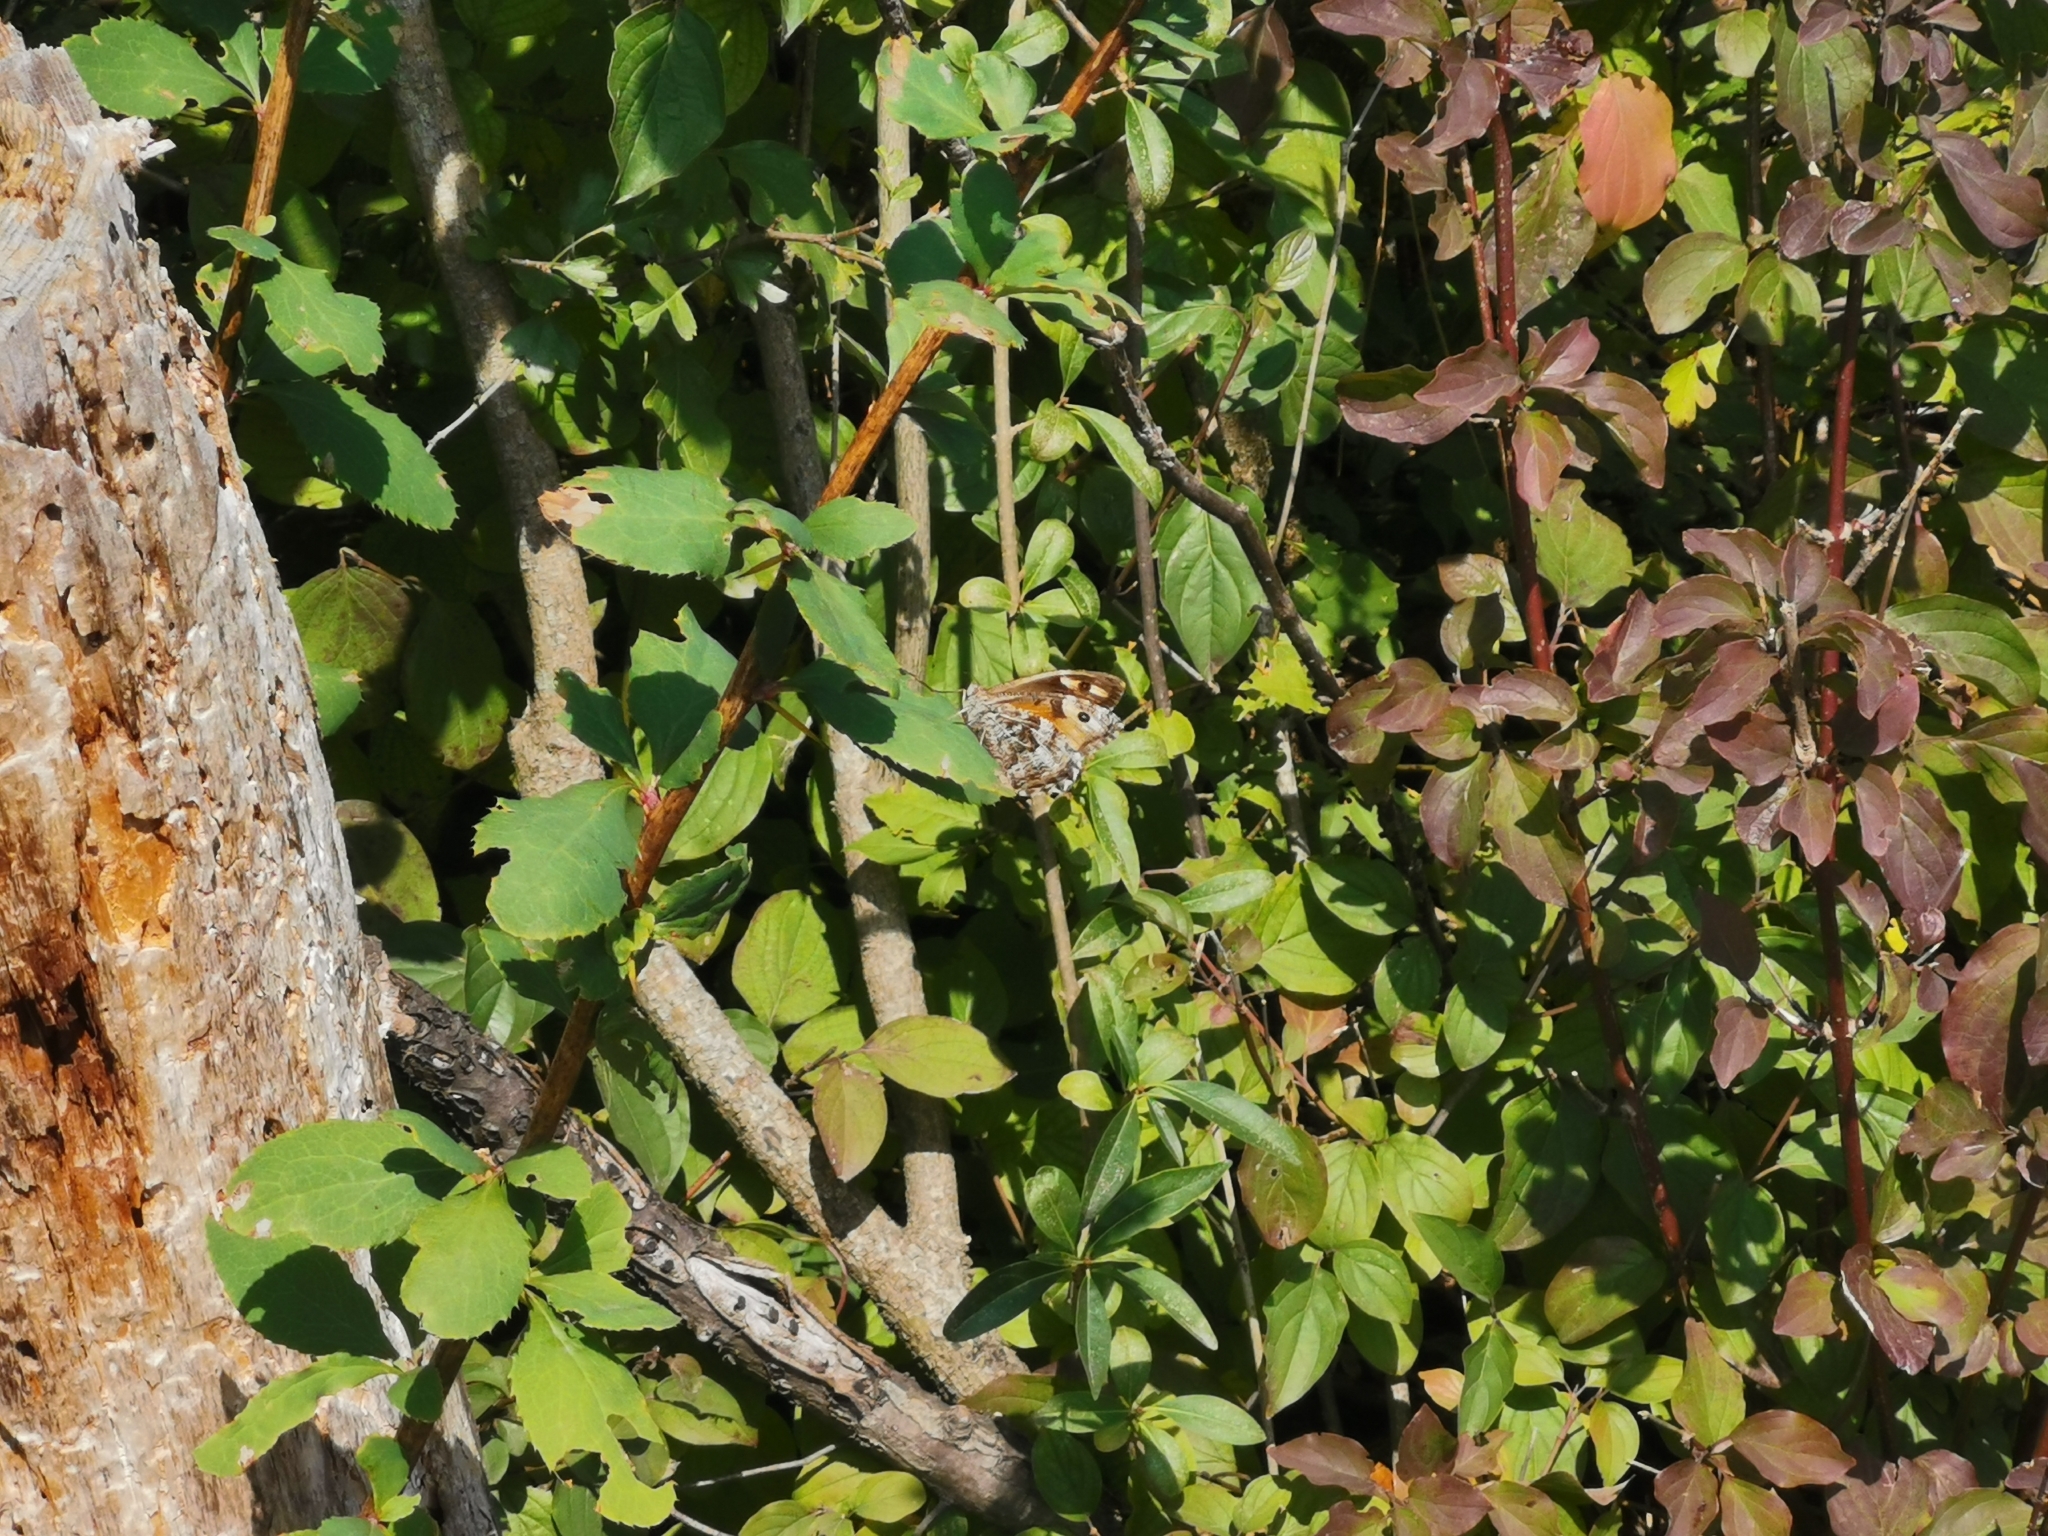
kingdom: Animalia
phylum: Arthropoda
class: Insecta
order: Lepidoptera
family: Nymphalidae
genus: Hipparchia
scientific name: Hipparchia semele
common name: Grayling
